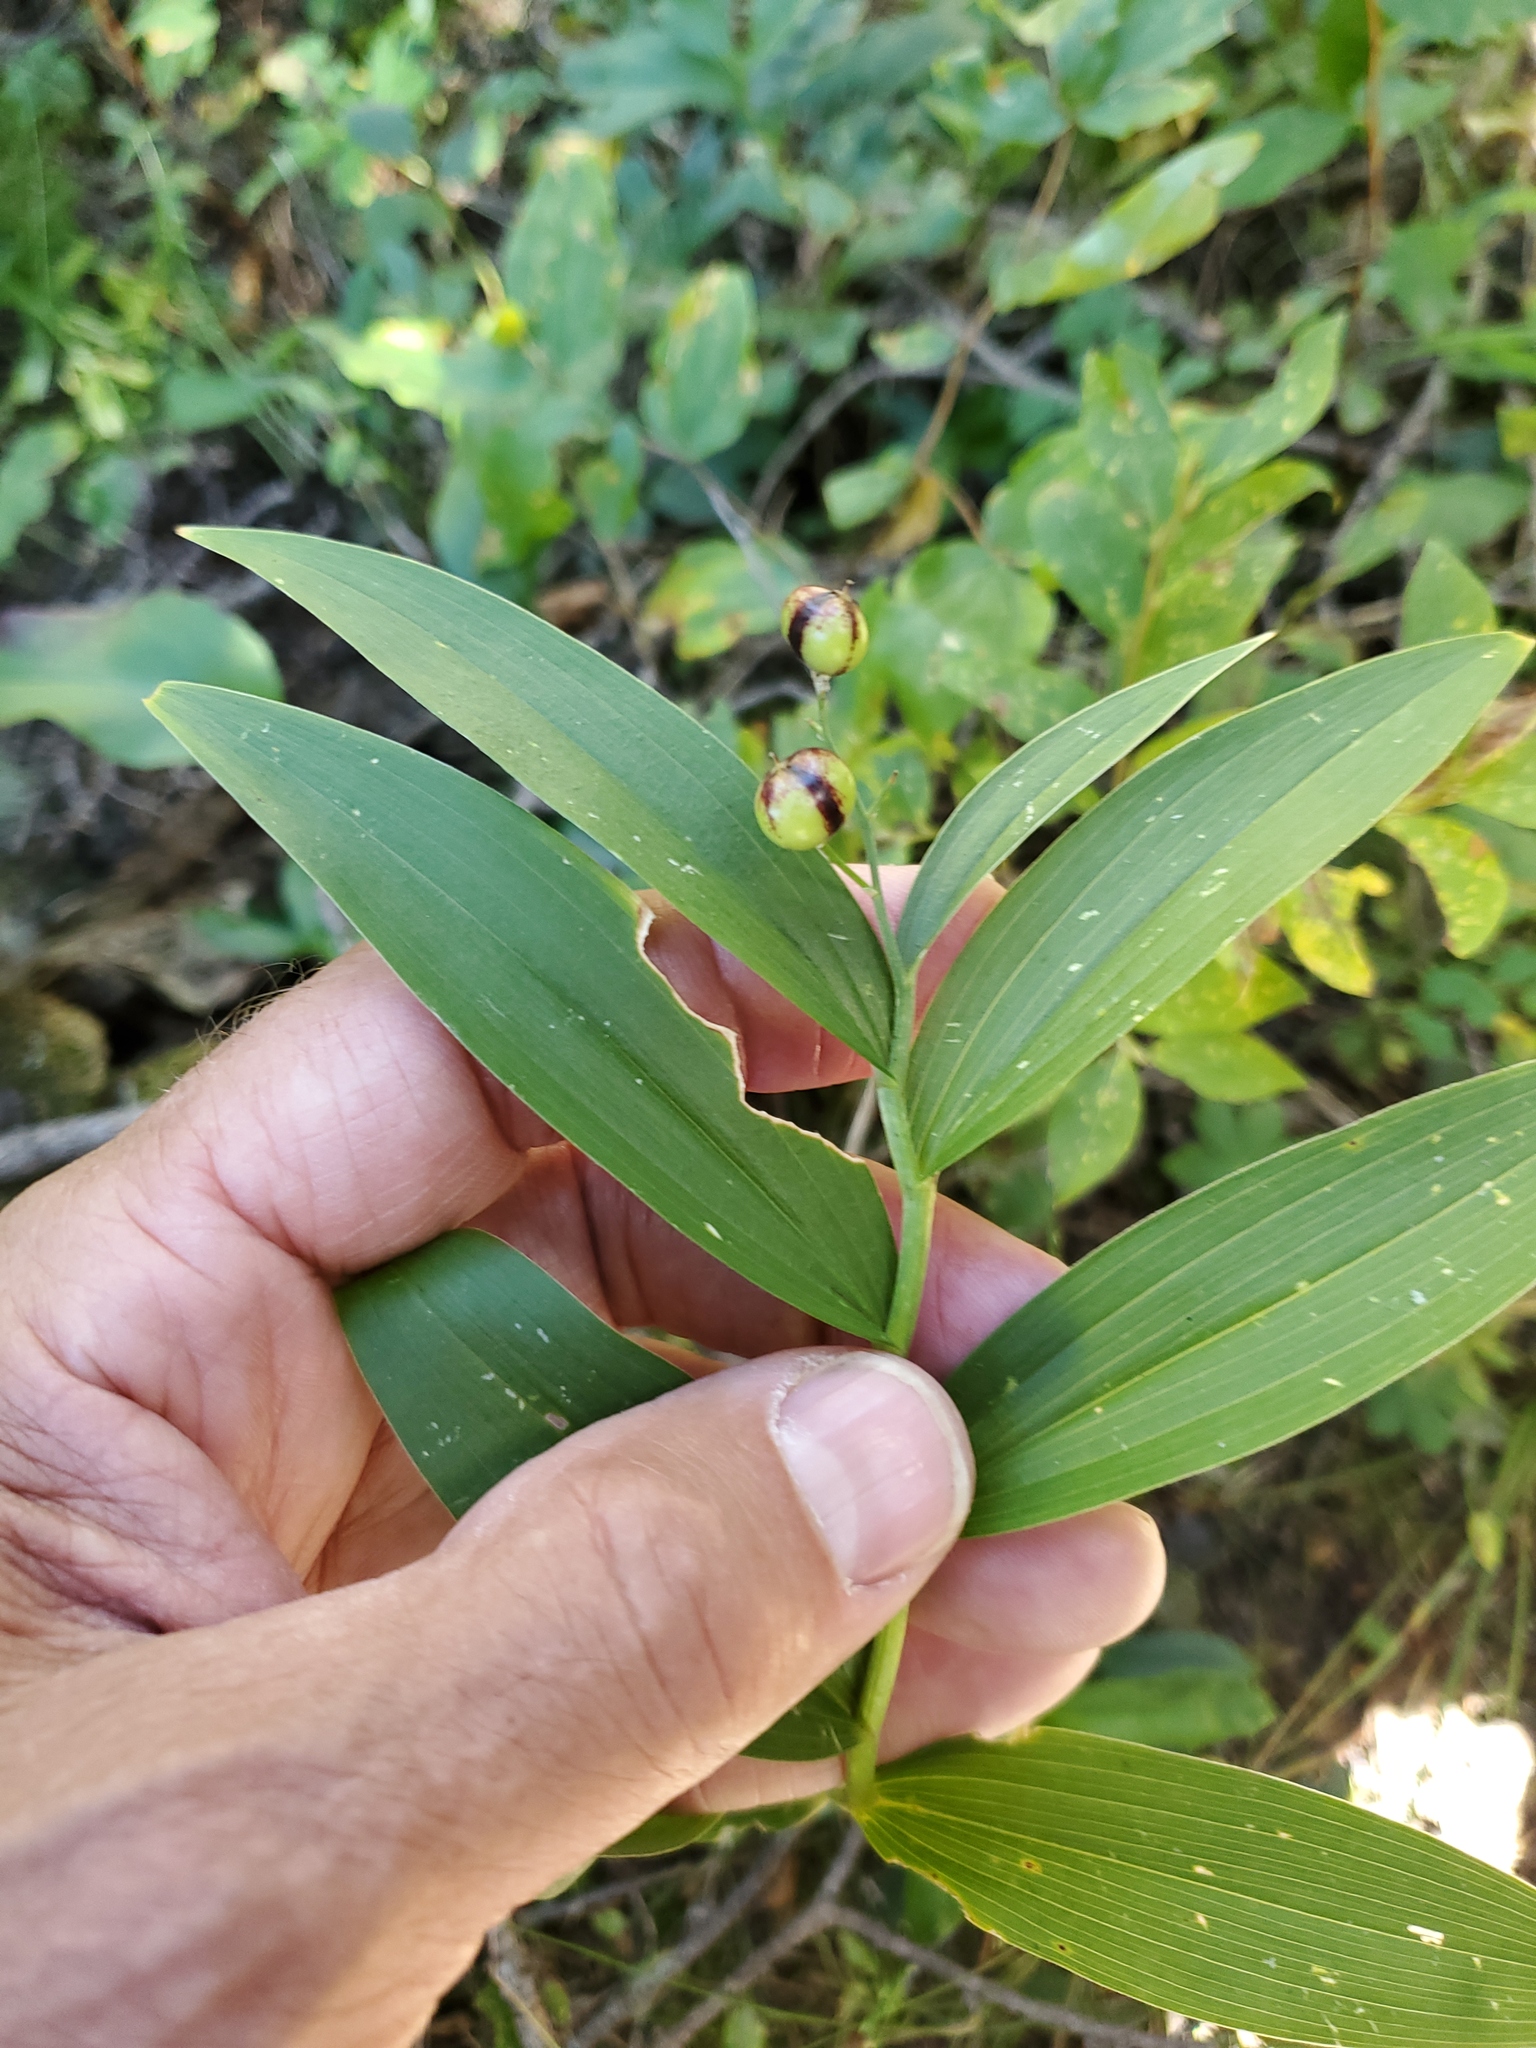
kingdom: Plantae
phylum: Tracheophyta
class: Liliopsida
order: Asparagales
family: Asparagaceae
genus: Maianthemum
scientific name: Maianthemum stellatum
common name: Little false solomon's seal
